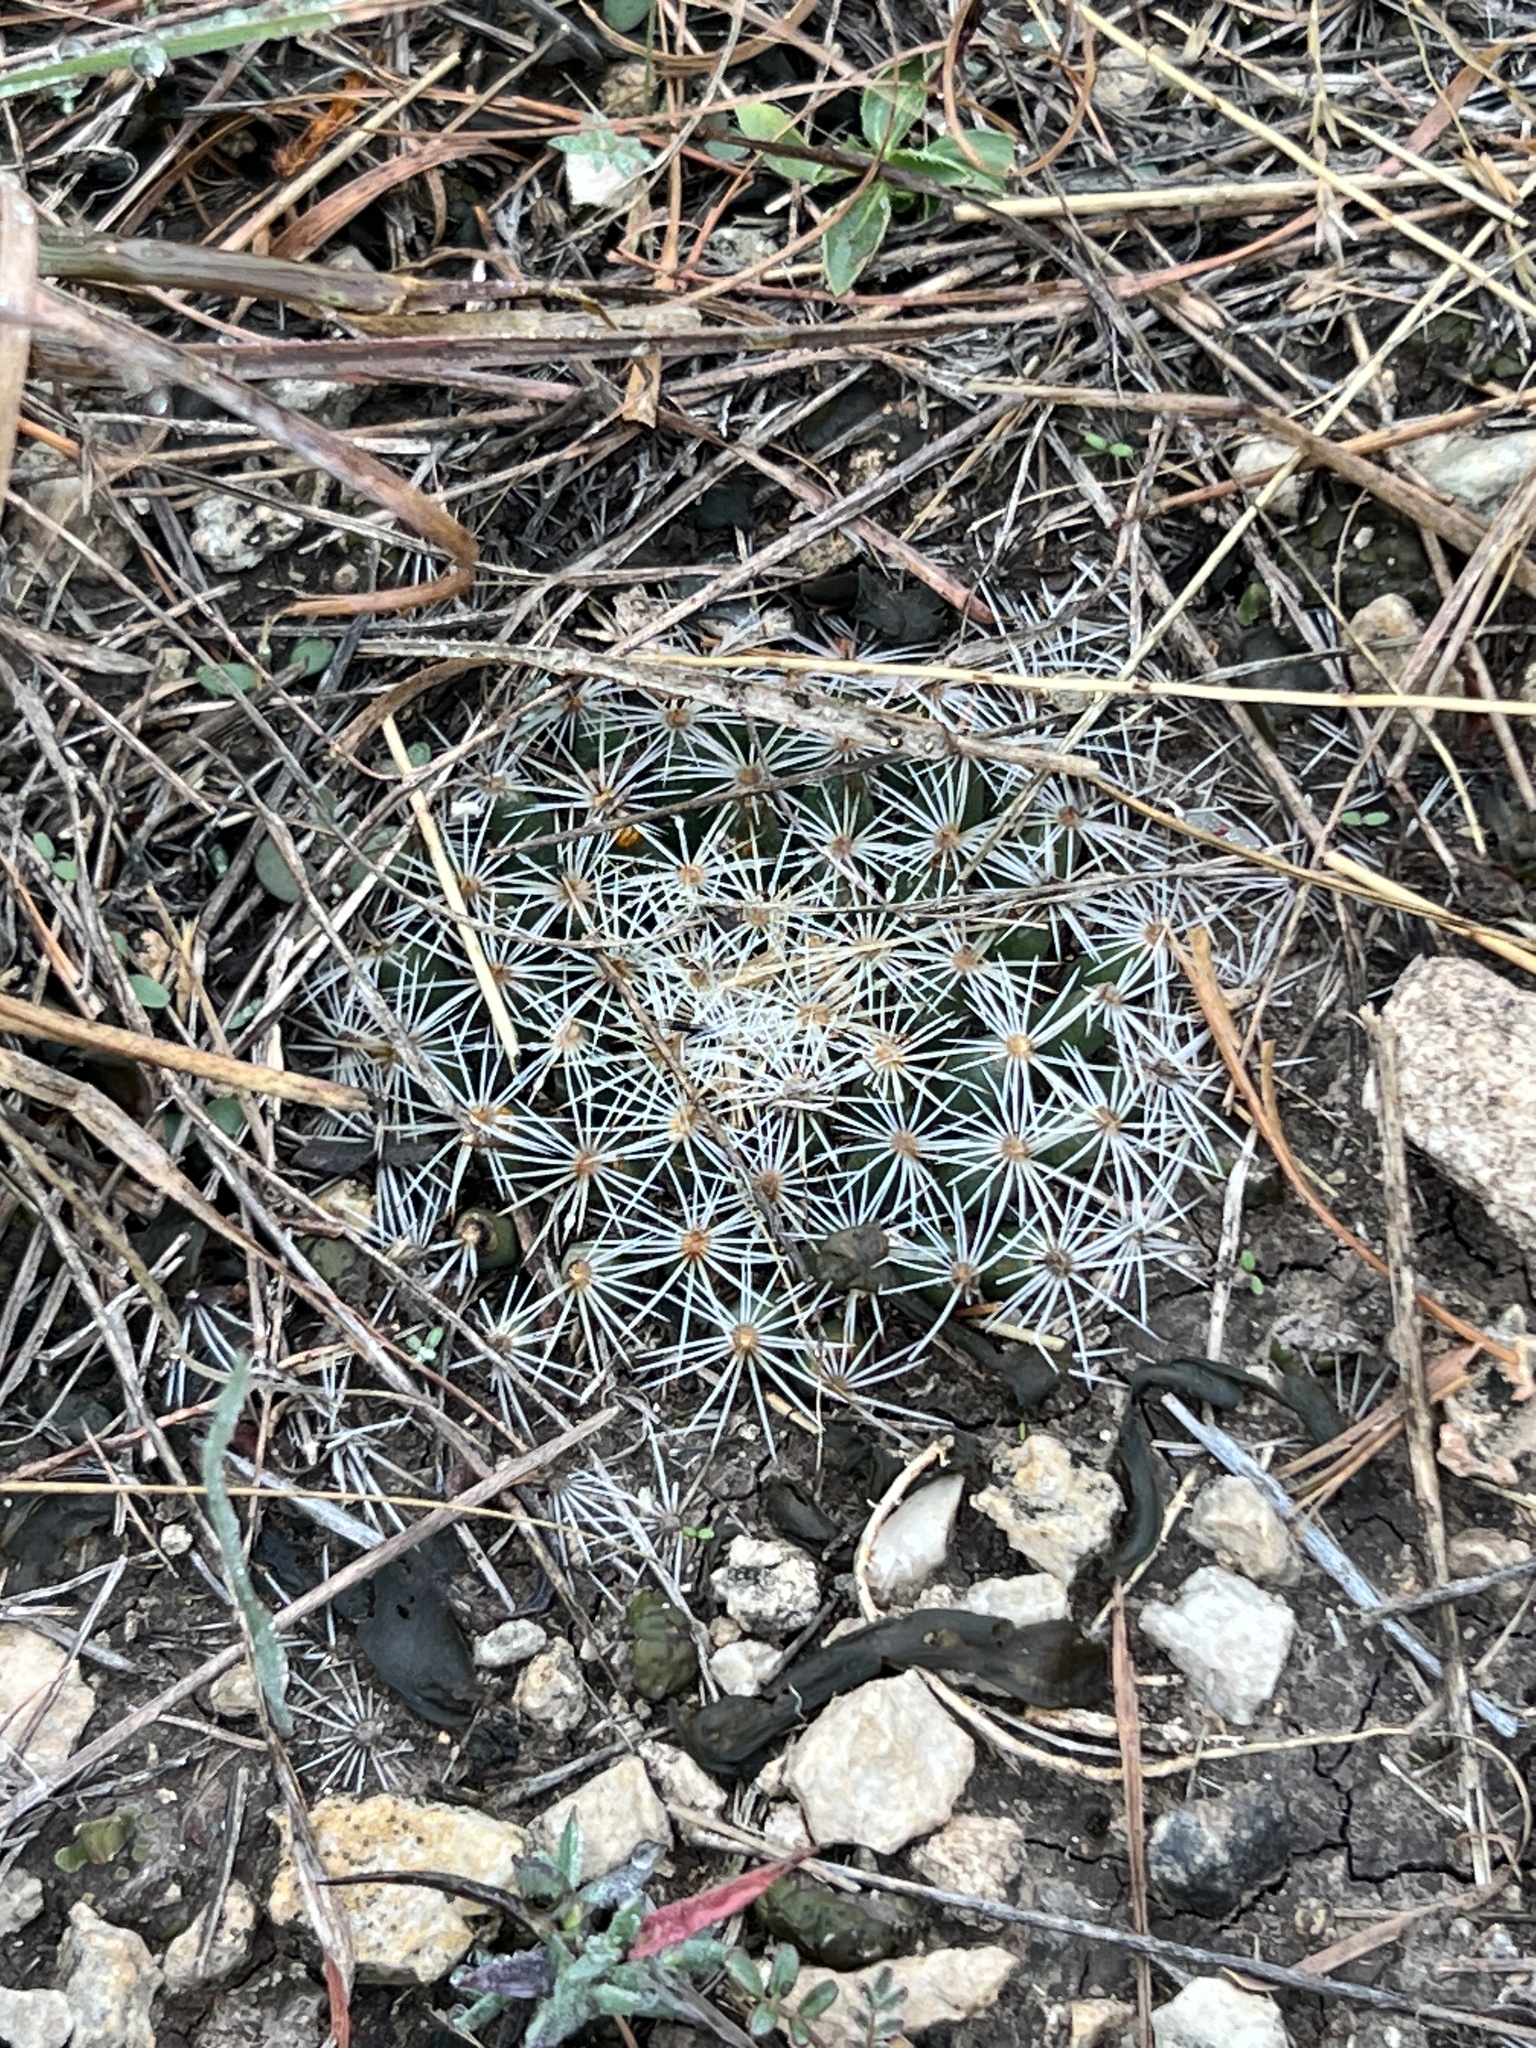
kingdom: Plantae
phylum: Tracheophyta
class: Magnoliopsida
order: Caryophyllales
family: Cactaceae
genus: Mammillaria
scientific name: Mammillaria heyderi
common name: Little nipple cactus
